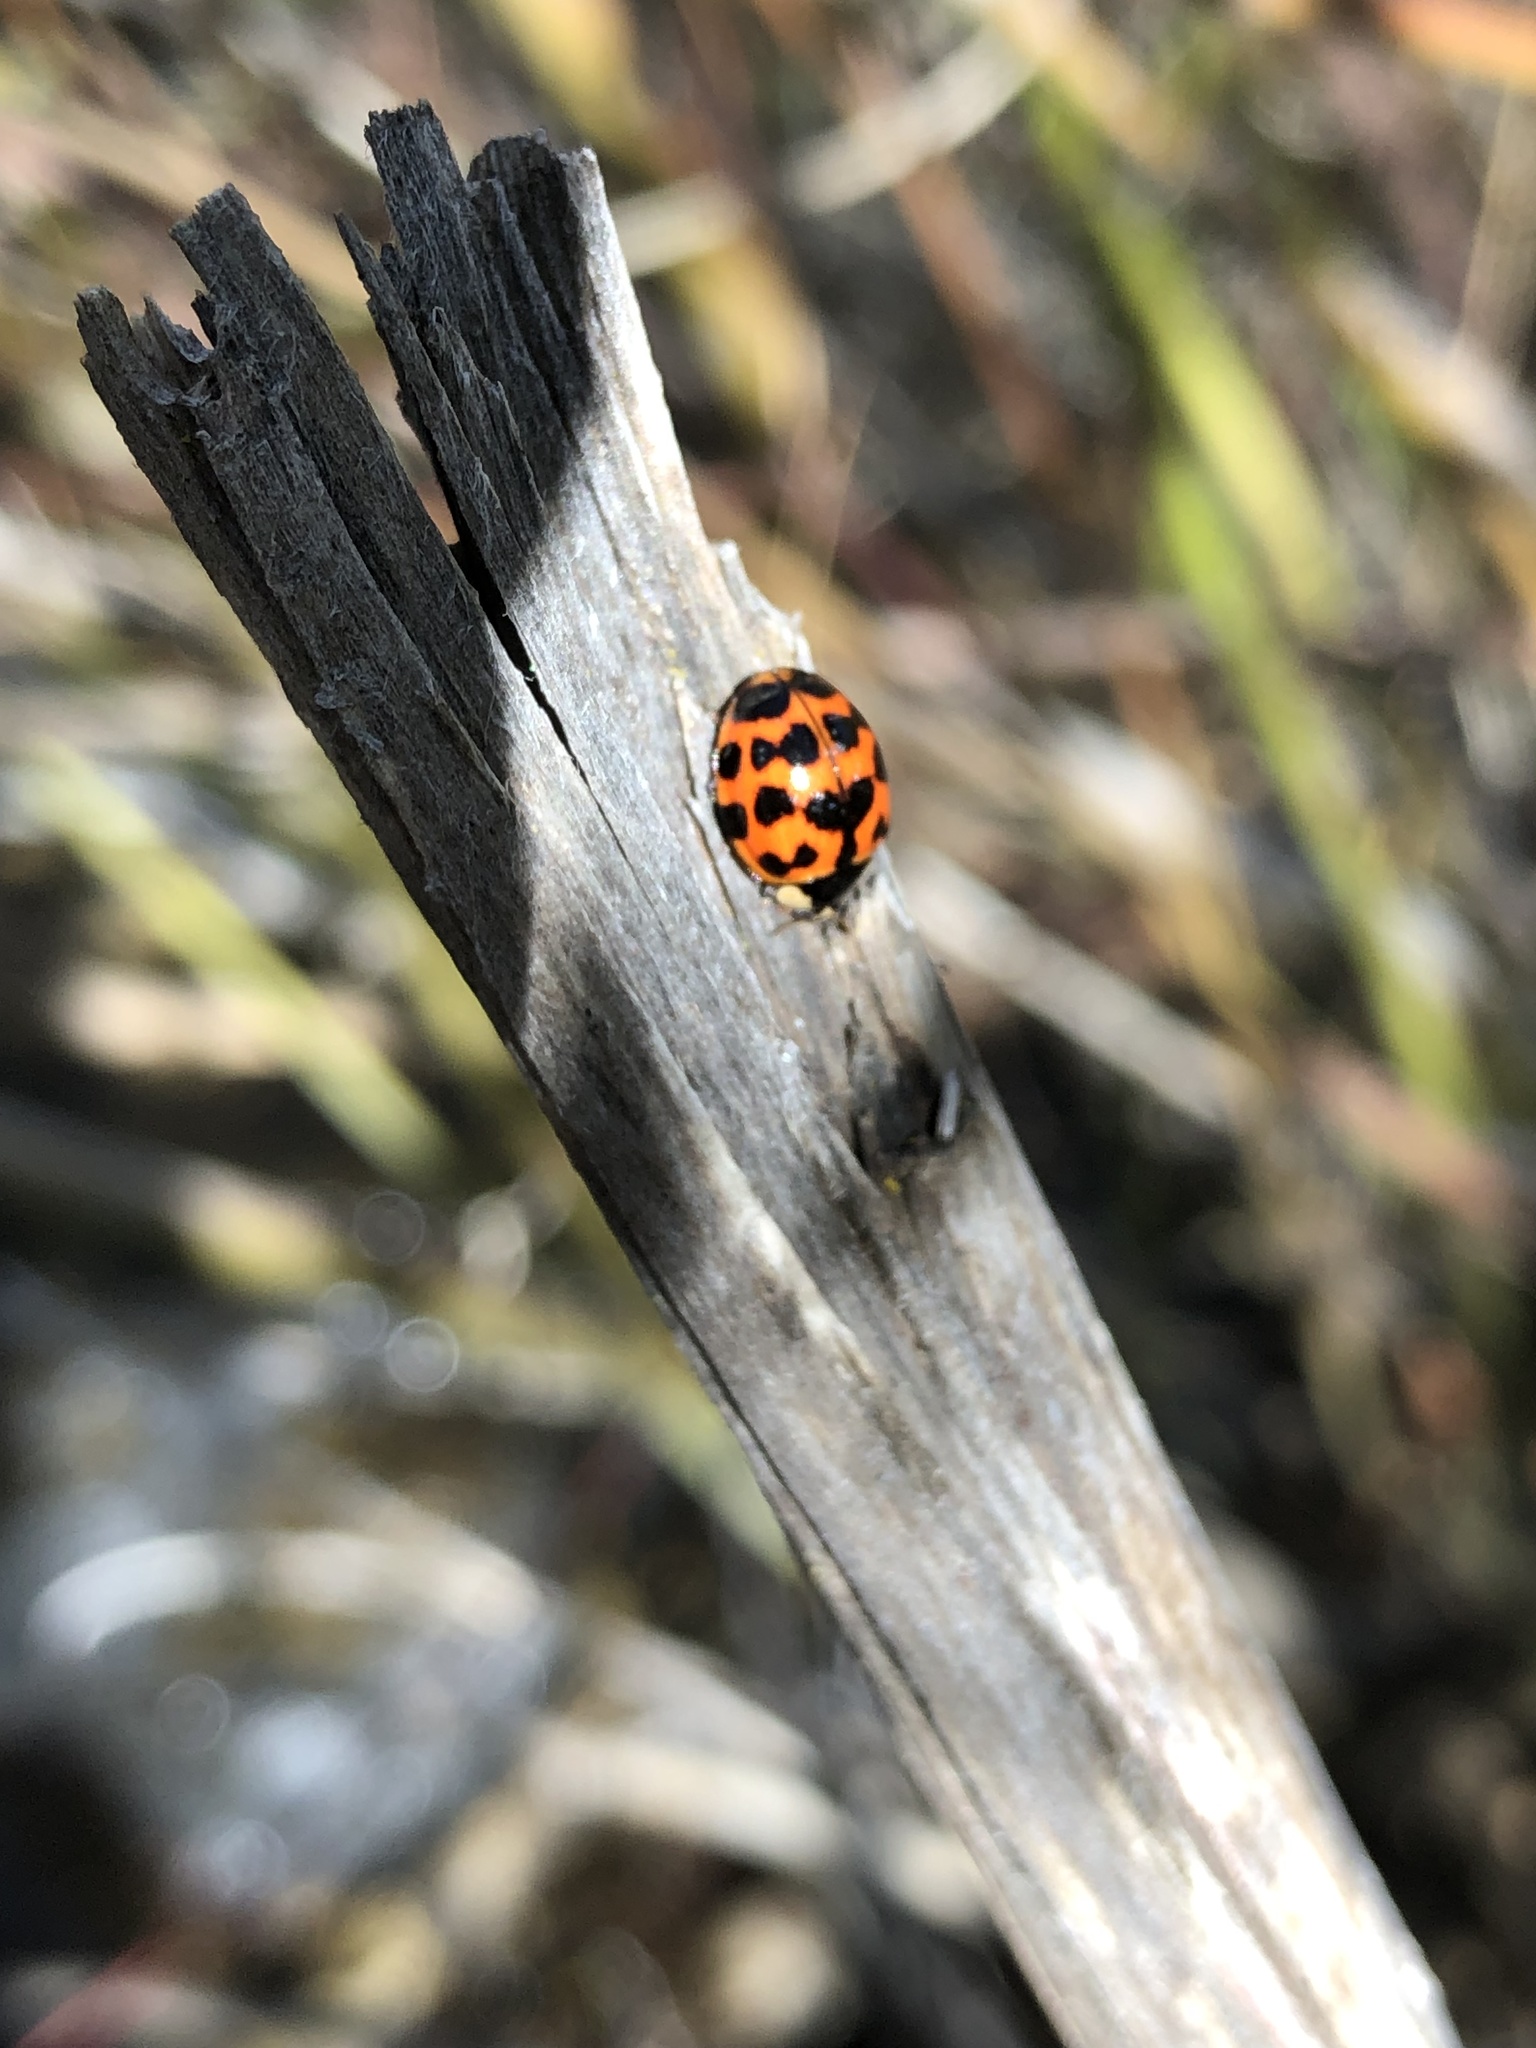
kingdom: Animalia
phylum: Arthropoda
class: Insecta
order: Coleoptera
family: Coccinellidae
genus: Harmonia
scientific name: Harmonia axyridis
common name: Harlequin ladybird
